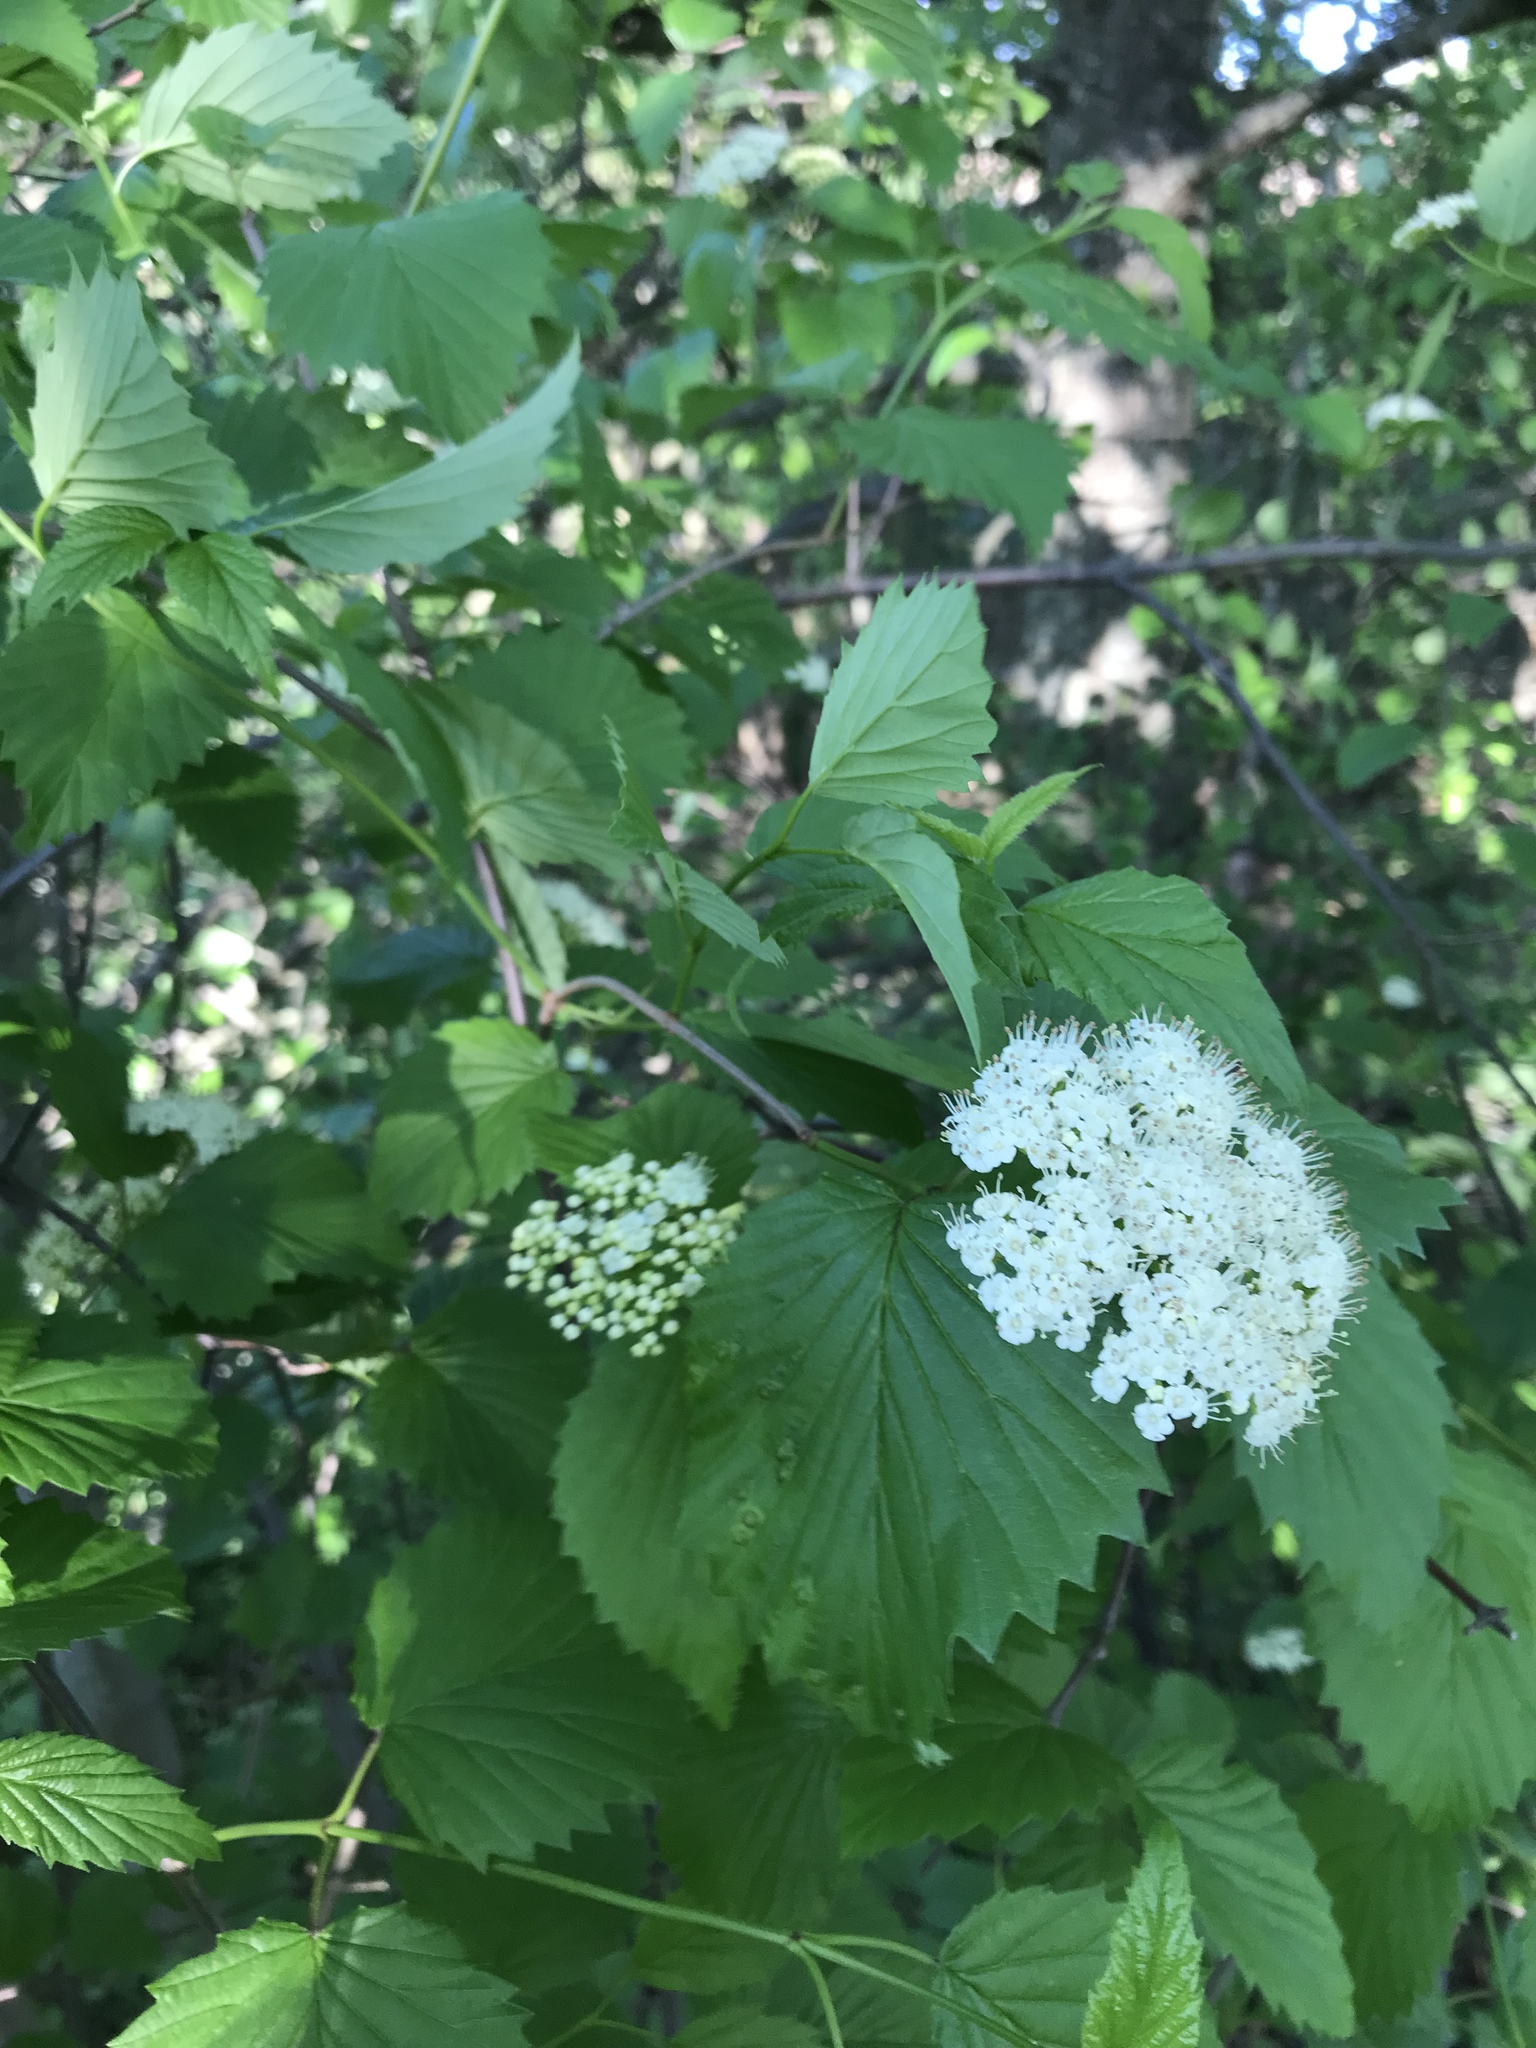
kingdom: Plantae
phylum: Tracheophyta
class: Magnoliopsida
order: Dipsacales
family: Viburnaceae
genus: Viburnum
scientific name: Viburnum dentatum
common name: Arrow-wood
